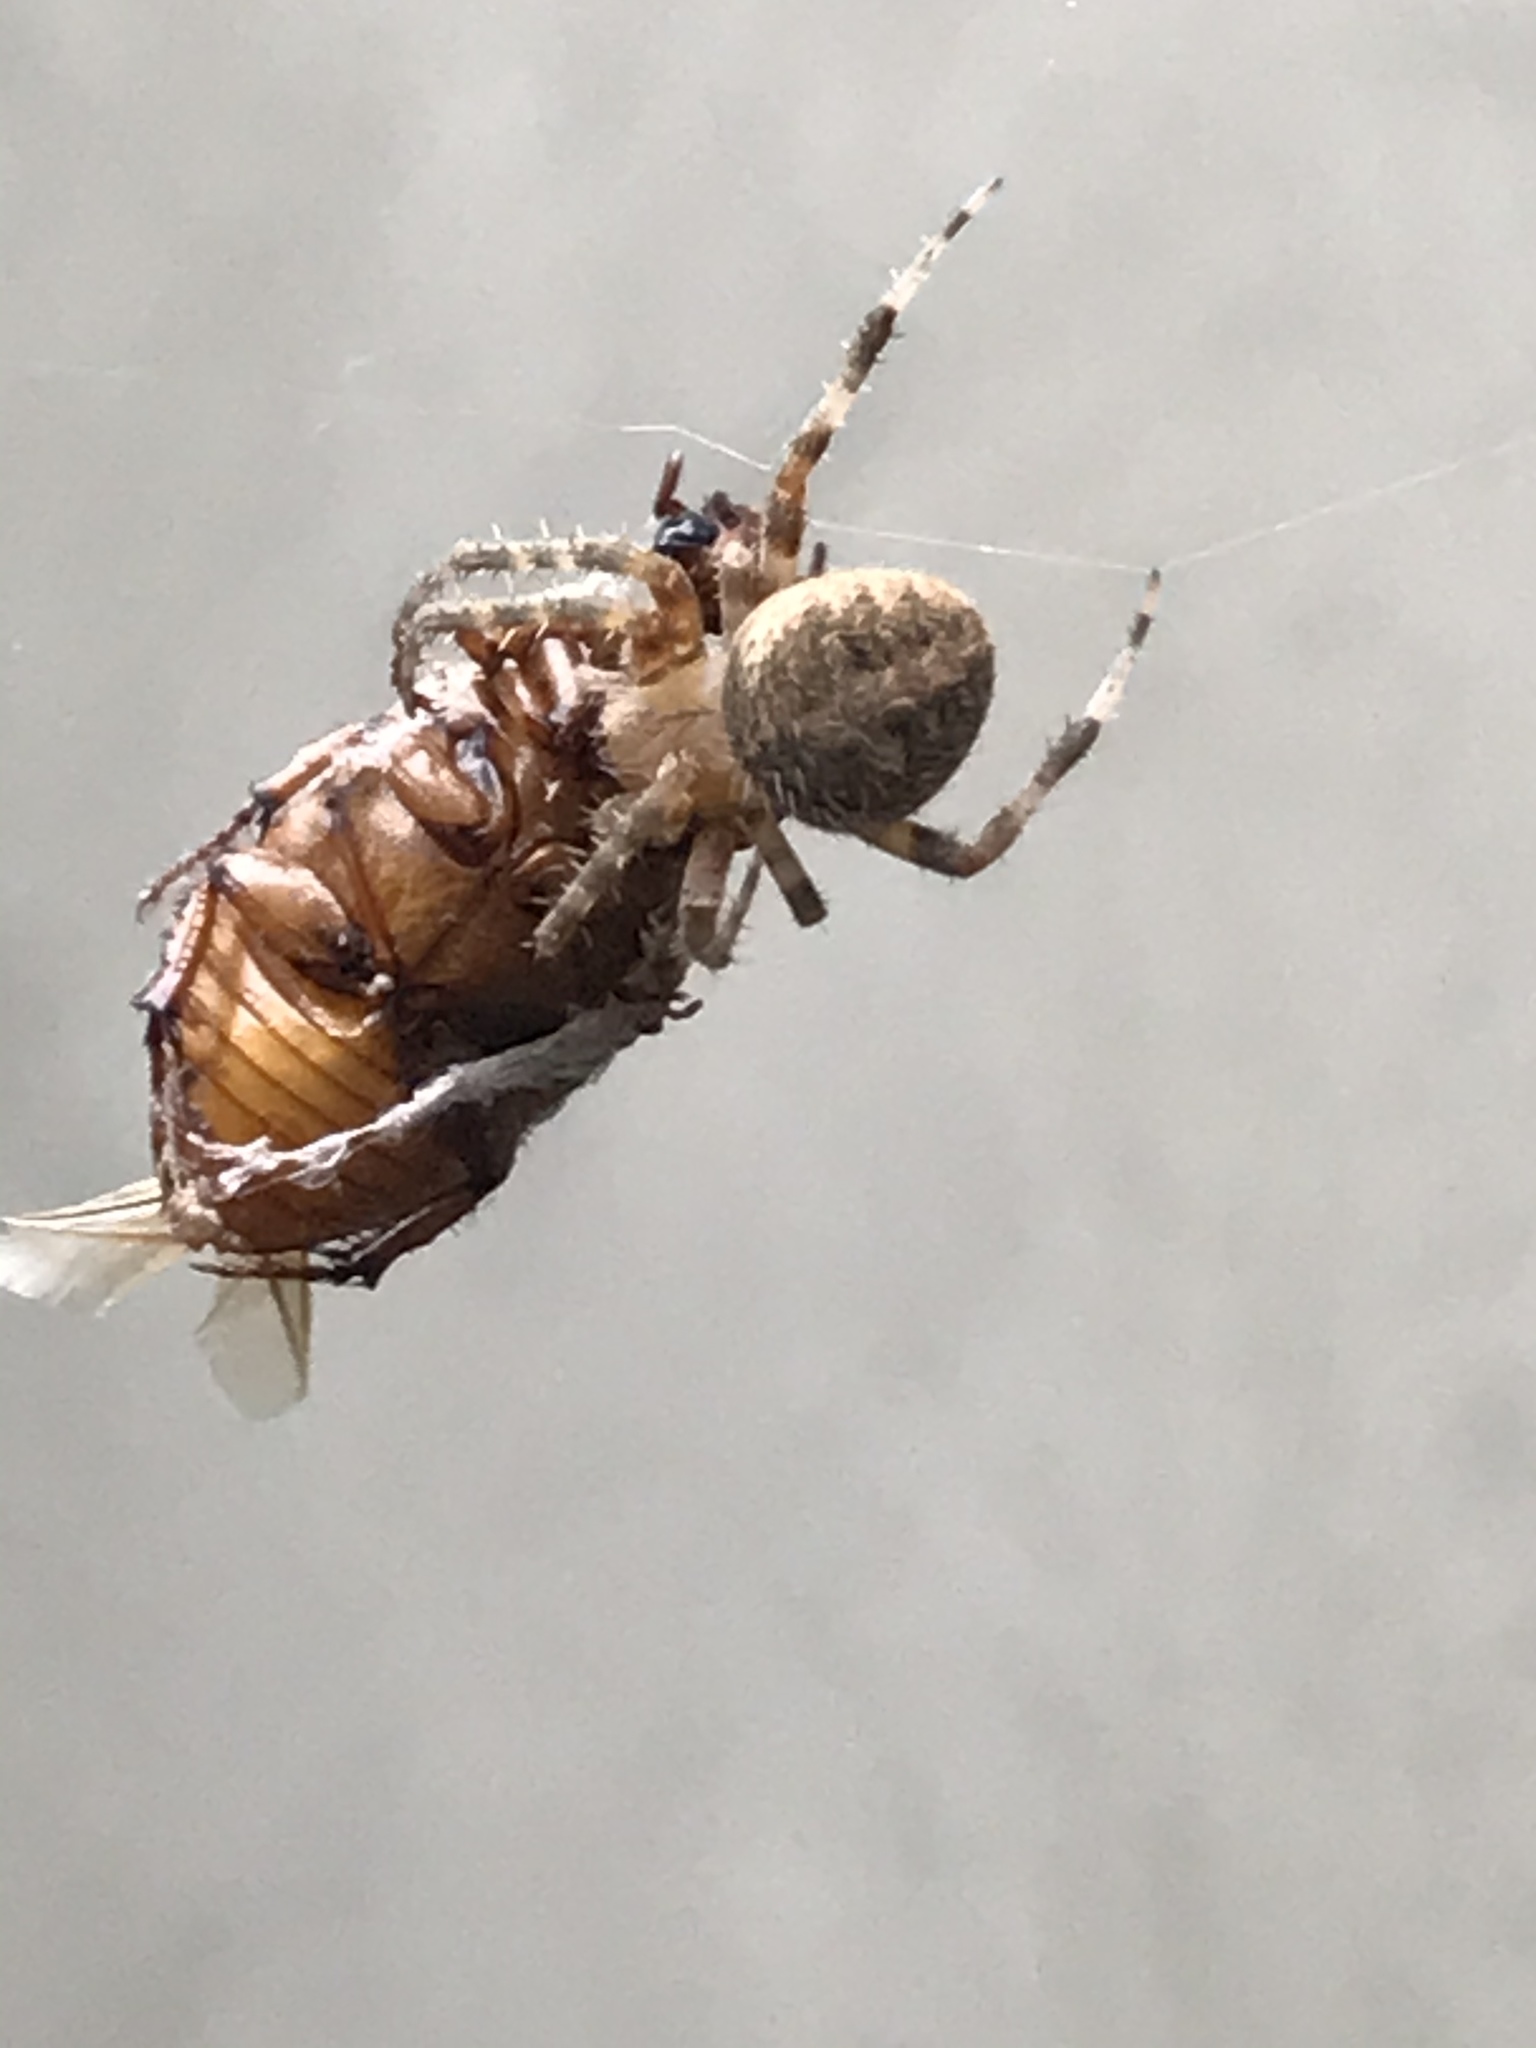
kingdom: Animalia
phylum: Arthropoda
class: Arachnida
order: Araneae
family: Araneidae
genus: Neoscona
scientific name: Neoscona crucifera
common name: Spotted orbweaver
